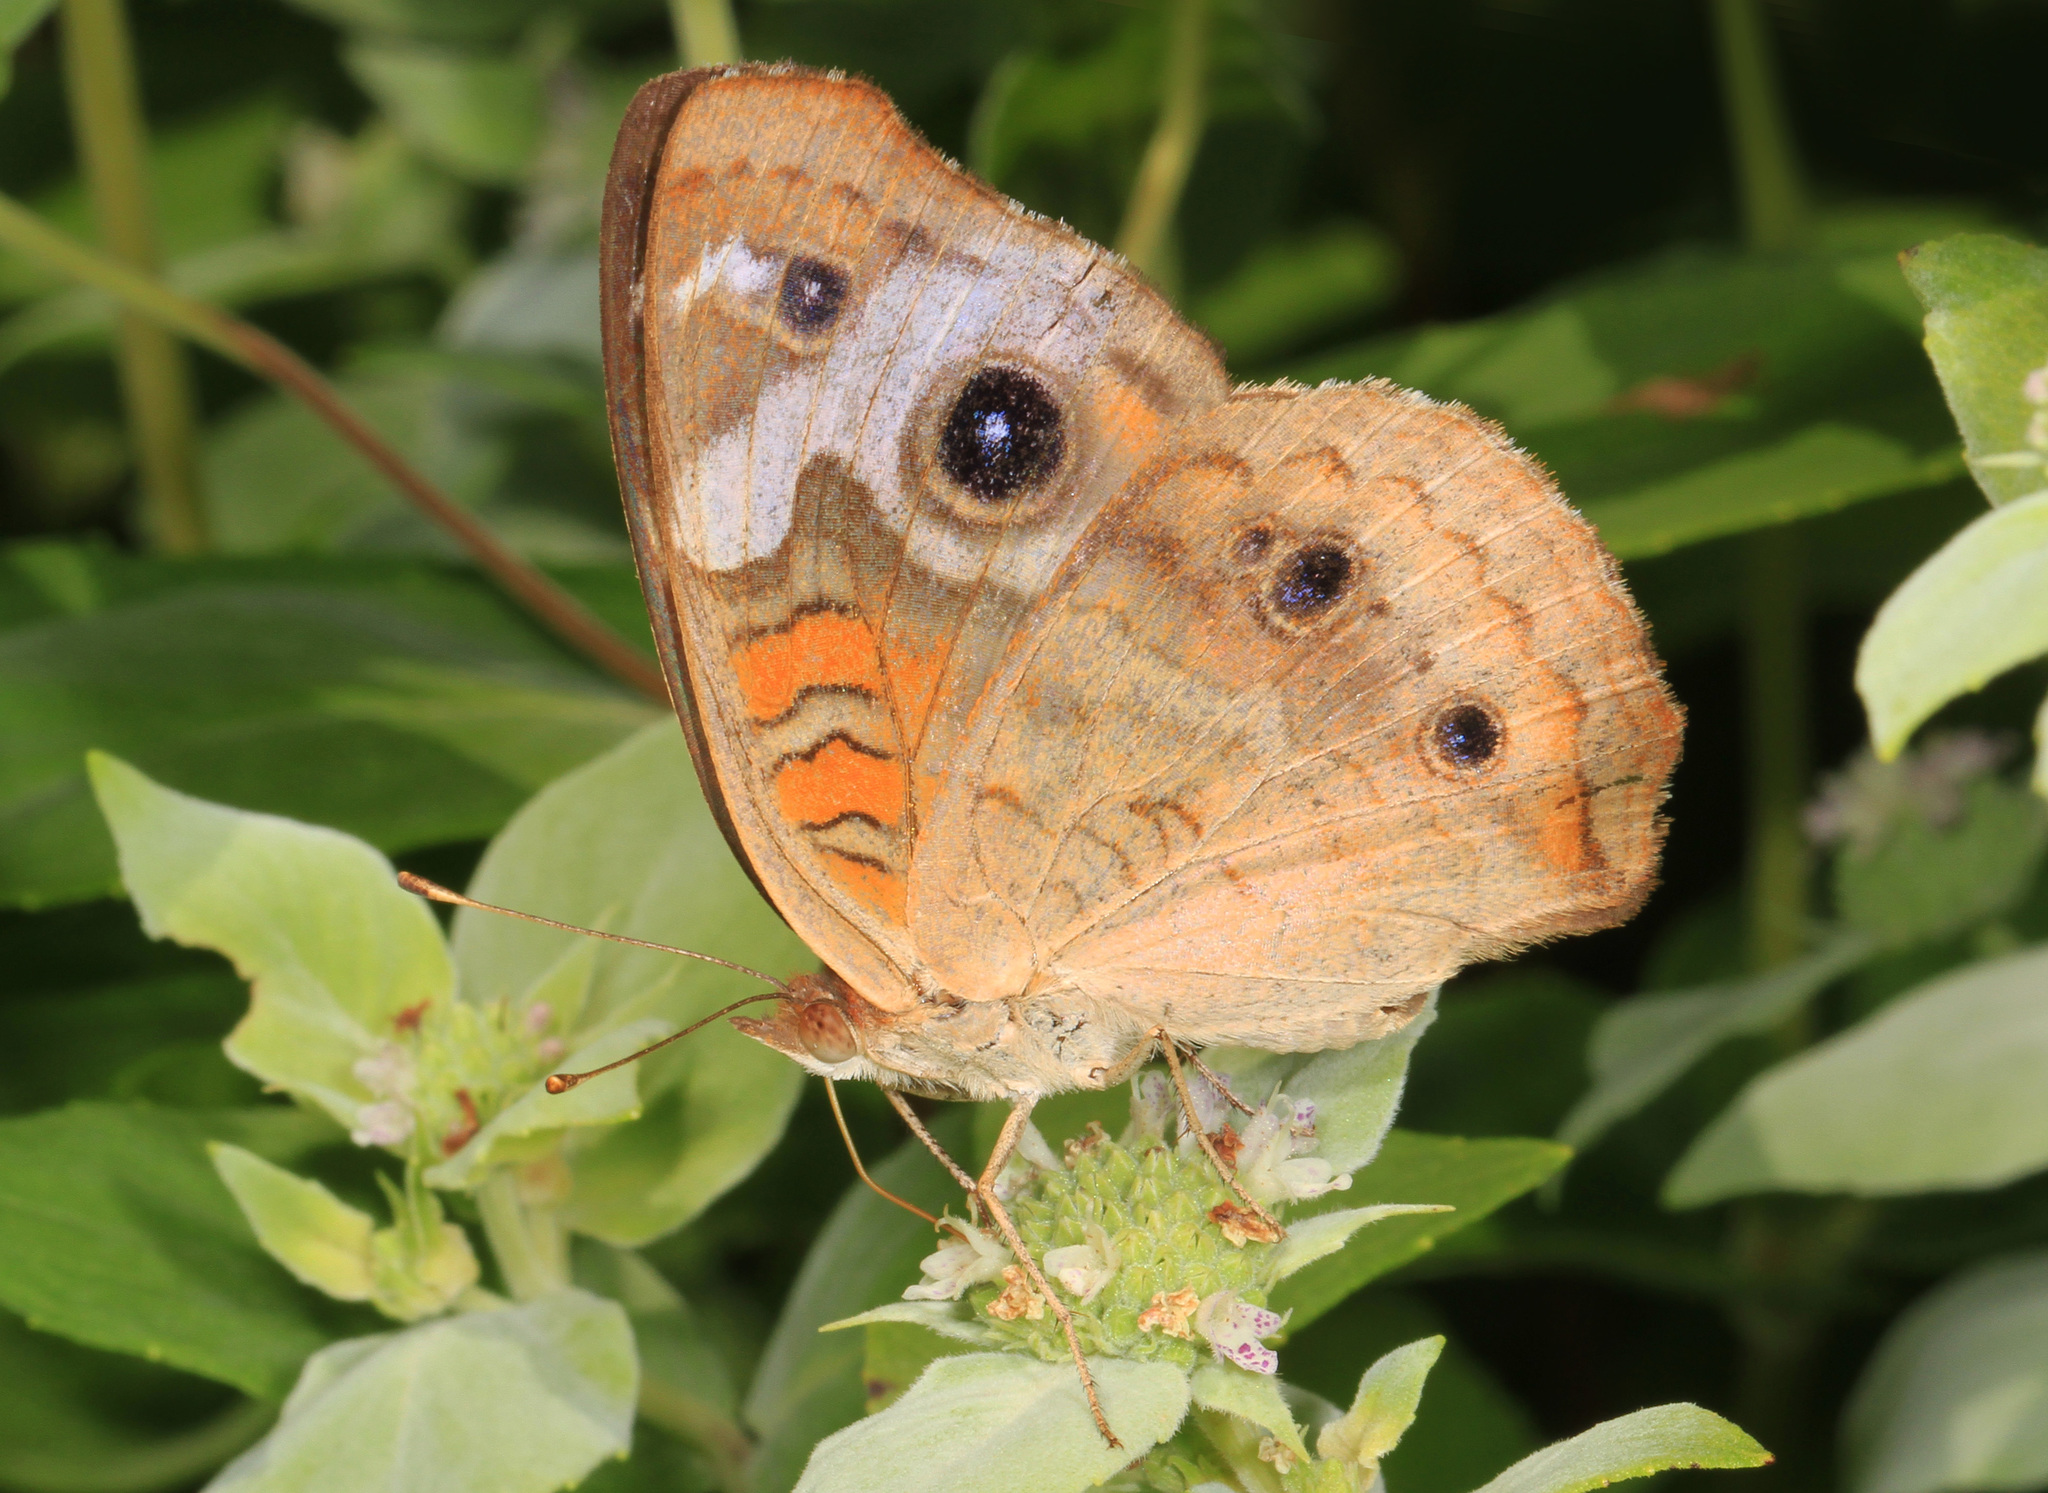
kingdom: Animalia
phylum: Arthropoda
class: Insecta
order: Lepidoptera
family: Nymphalidae
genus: Junonia
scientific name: Junonia coenia
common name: Common buckeye
